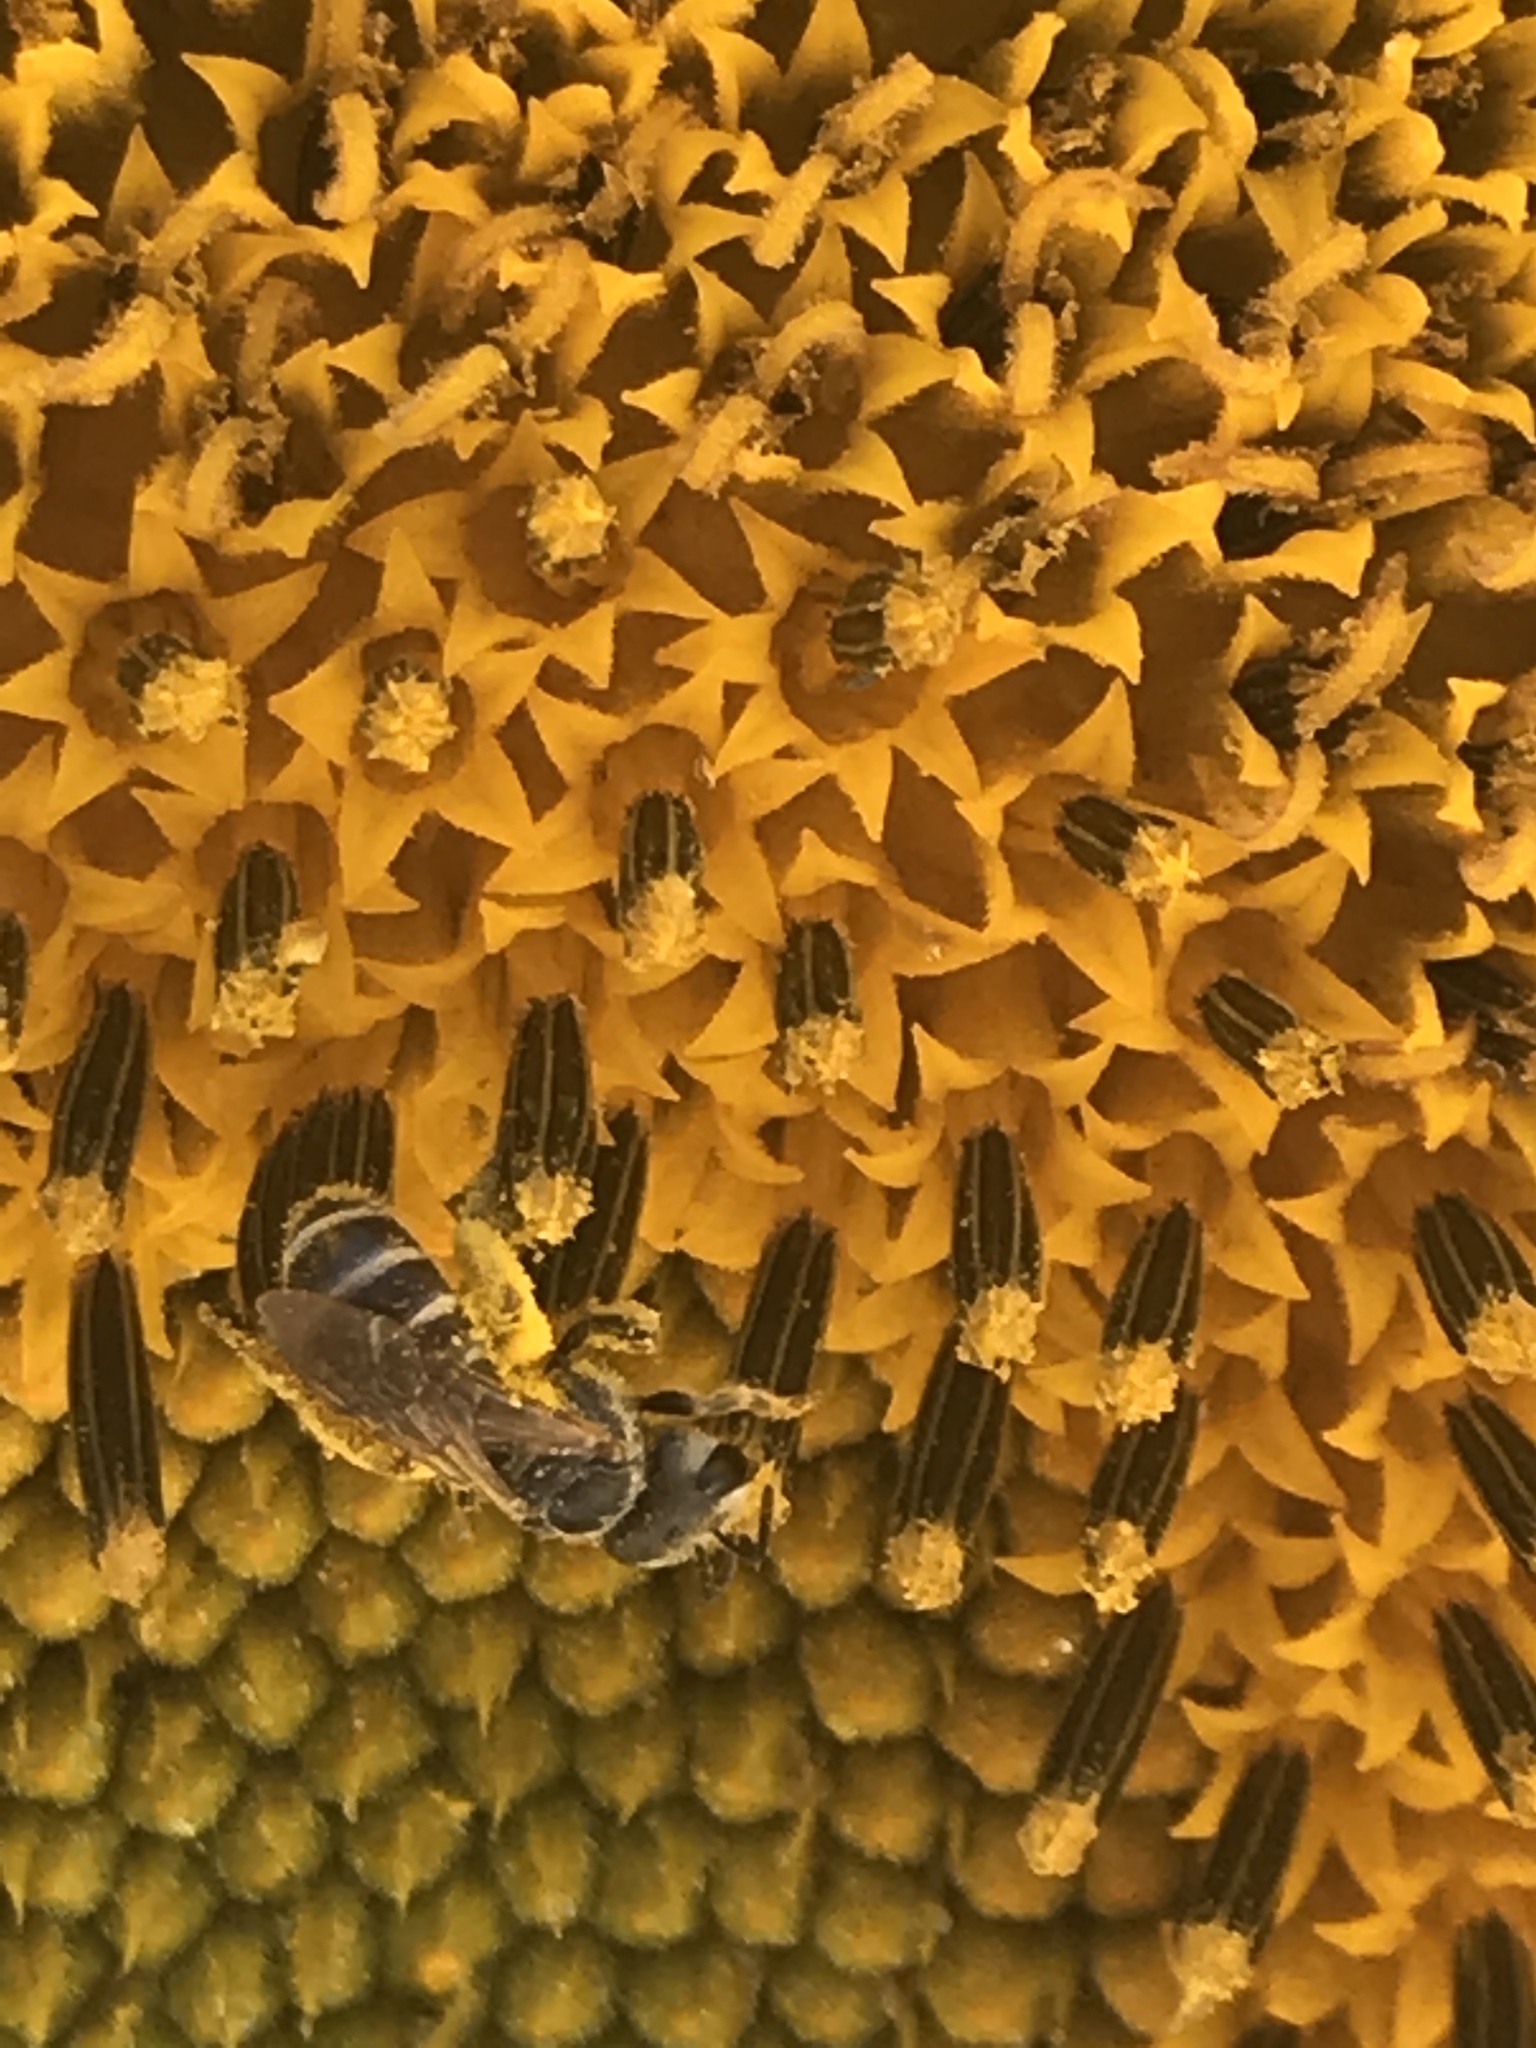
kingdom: Animalia
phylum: Arthropoda
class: Insecta
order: Hymenoptera
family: Halictidae
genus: Halictus
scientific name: Halictus ligatus
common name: Ligated furrow bee
